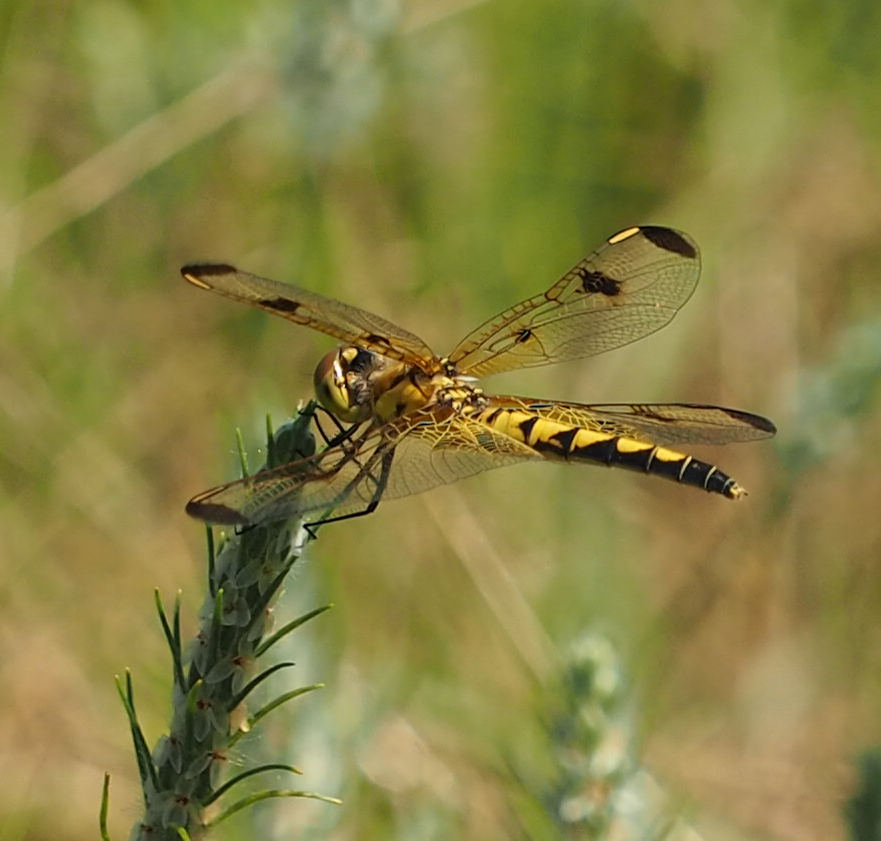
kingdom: Animalia
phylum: Arthropoda
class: Insecta
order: Odonata
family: Libellulidae
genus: Celithemis
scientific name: Celithemis elisa
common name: Calico pennant
